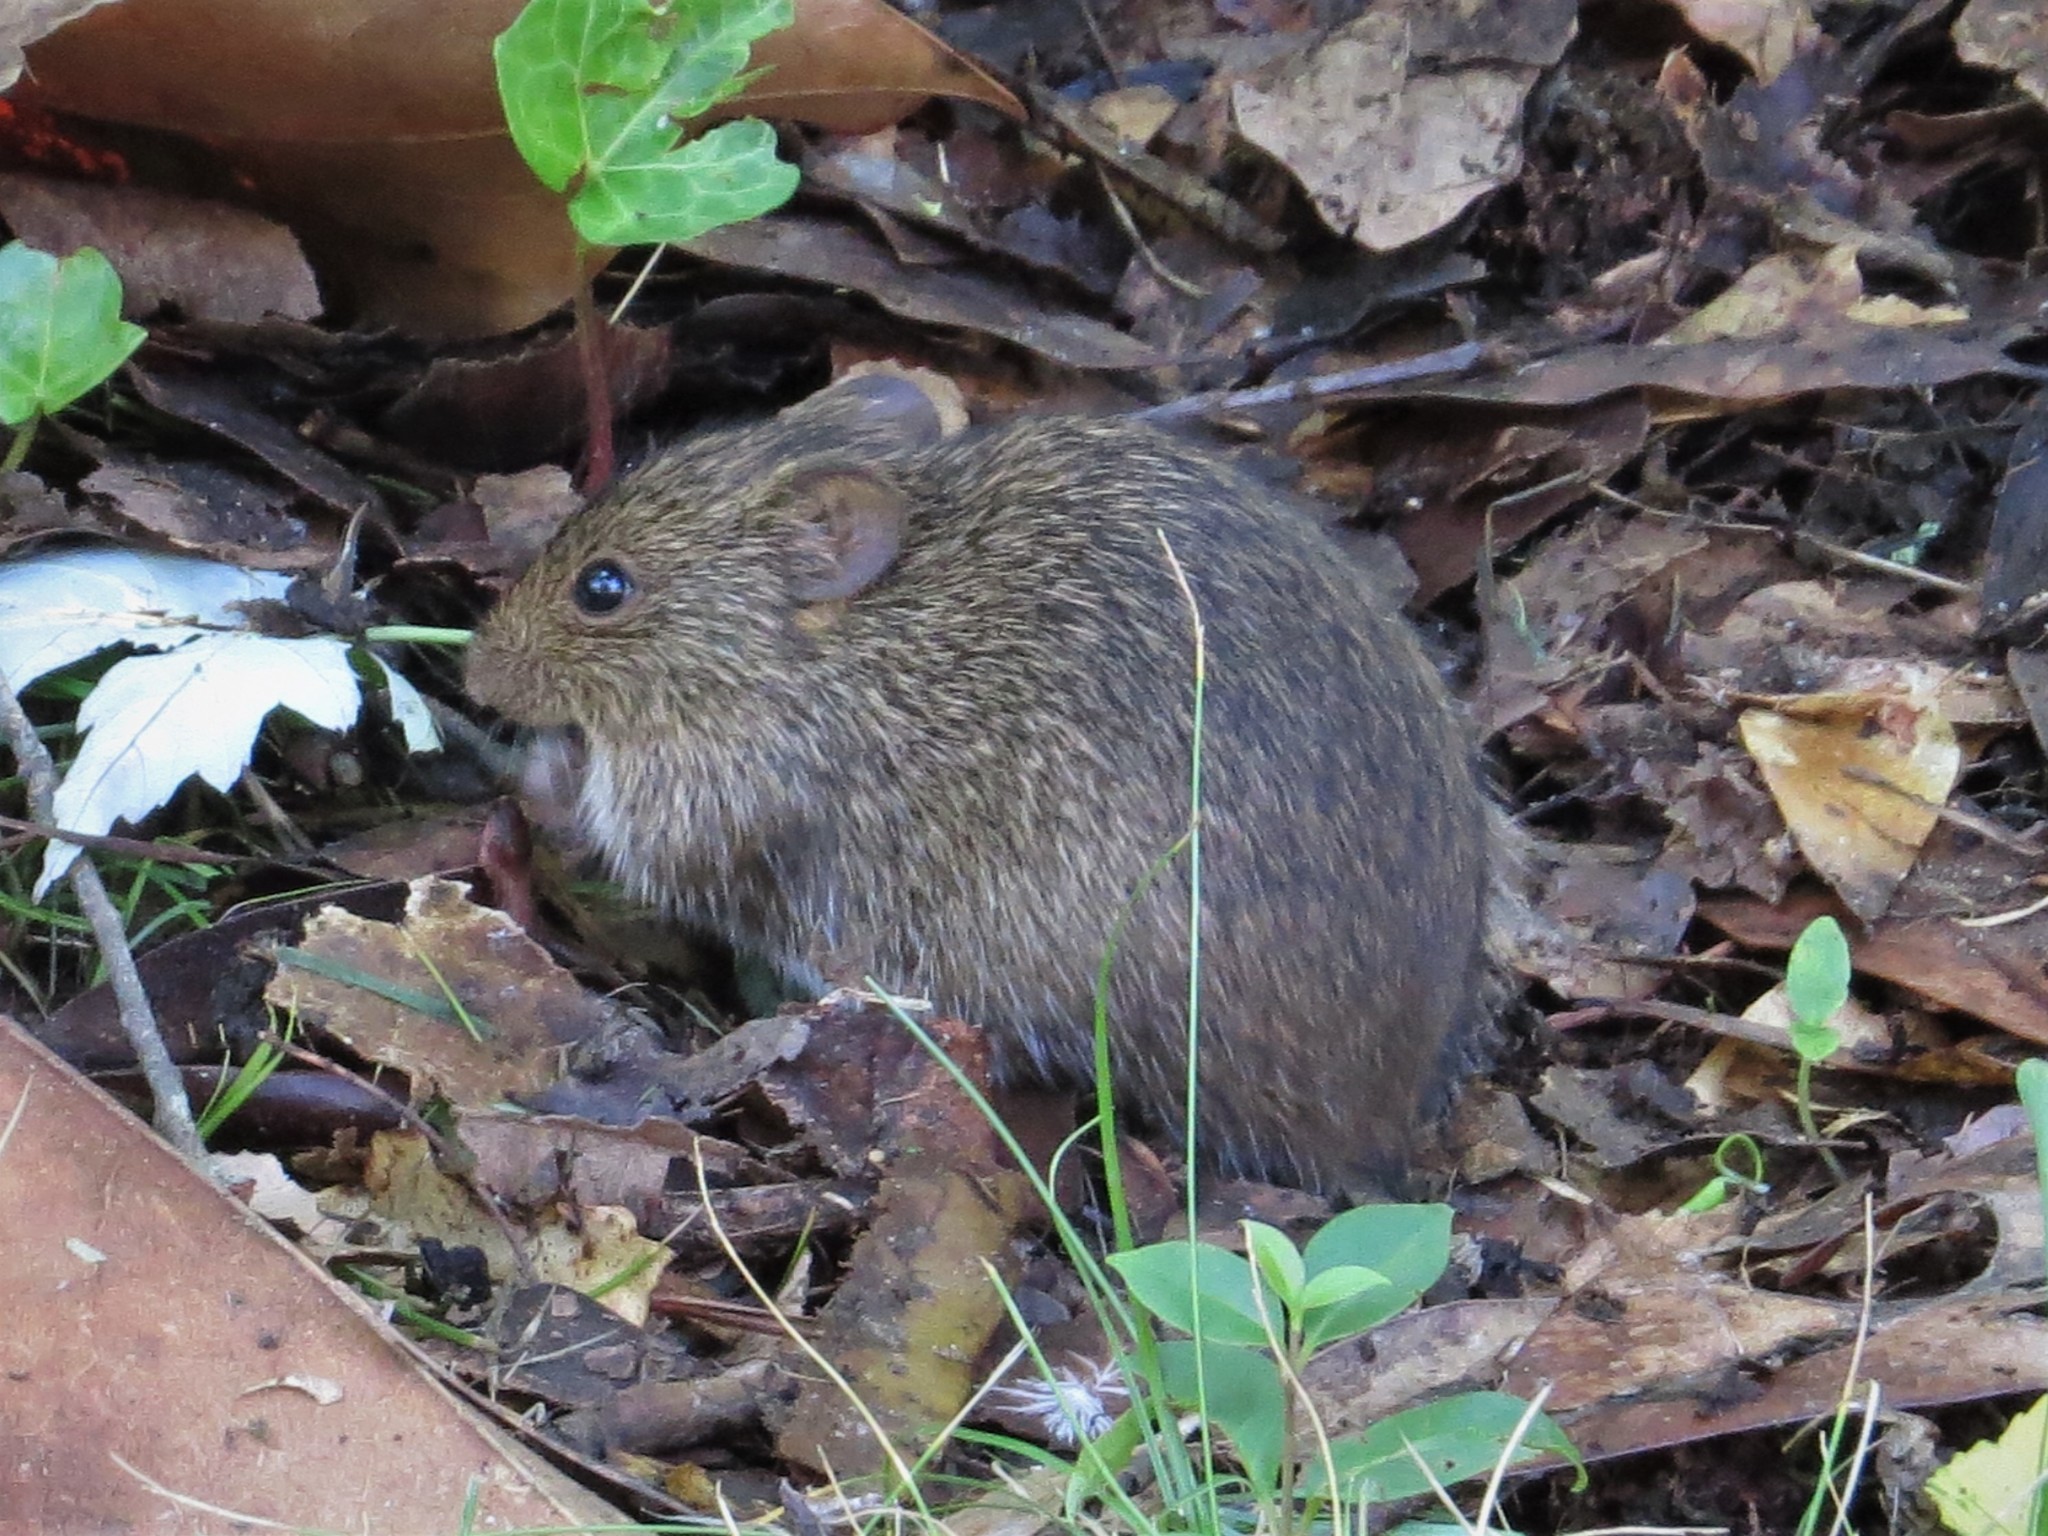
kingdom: Animalia
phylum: Chordata
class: Mammalia
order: Rodentia
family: Cricetidae
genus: Sigmodon
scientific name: Sigmodon hispidus
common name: Hispid cotton rat
